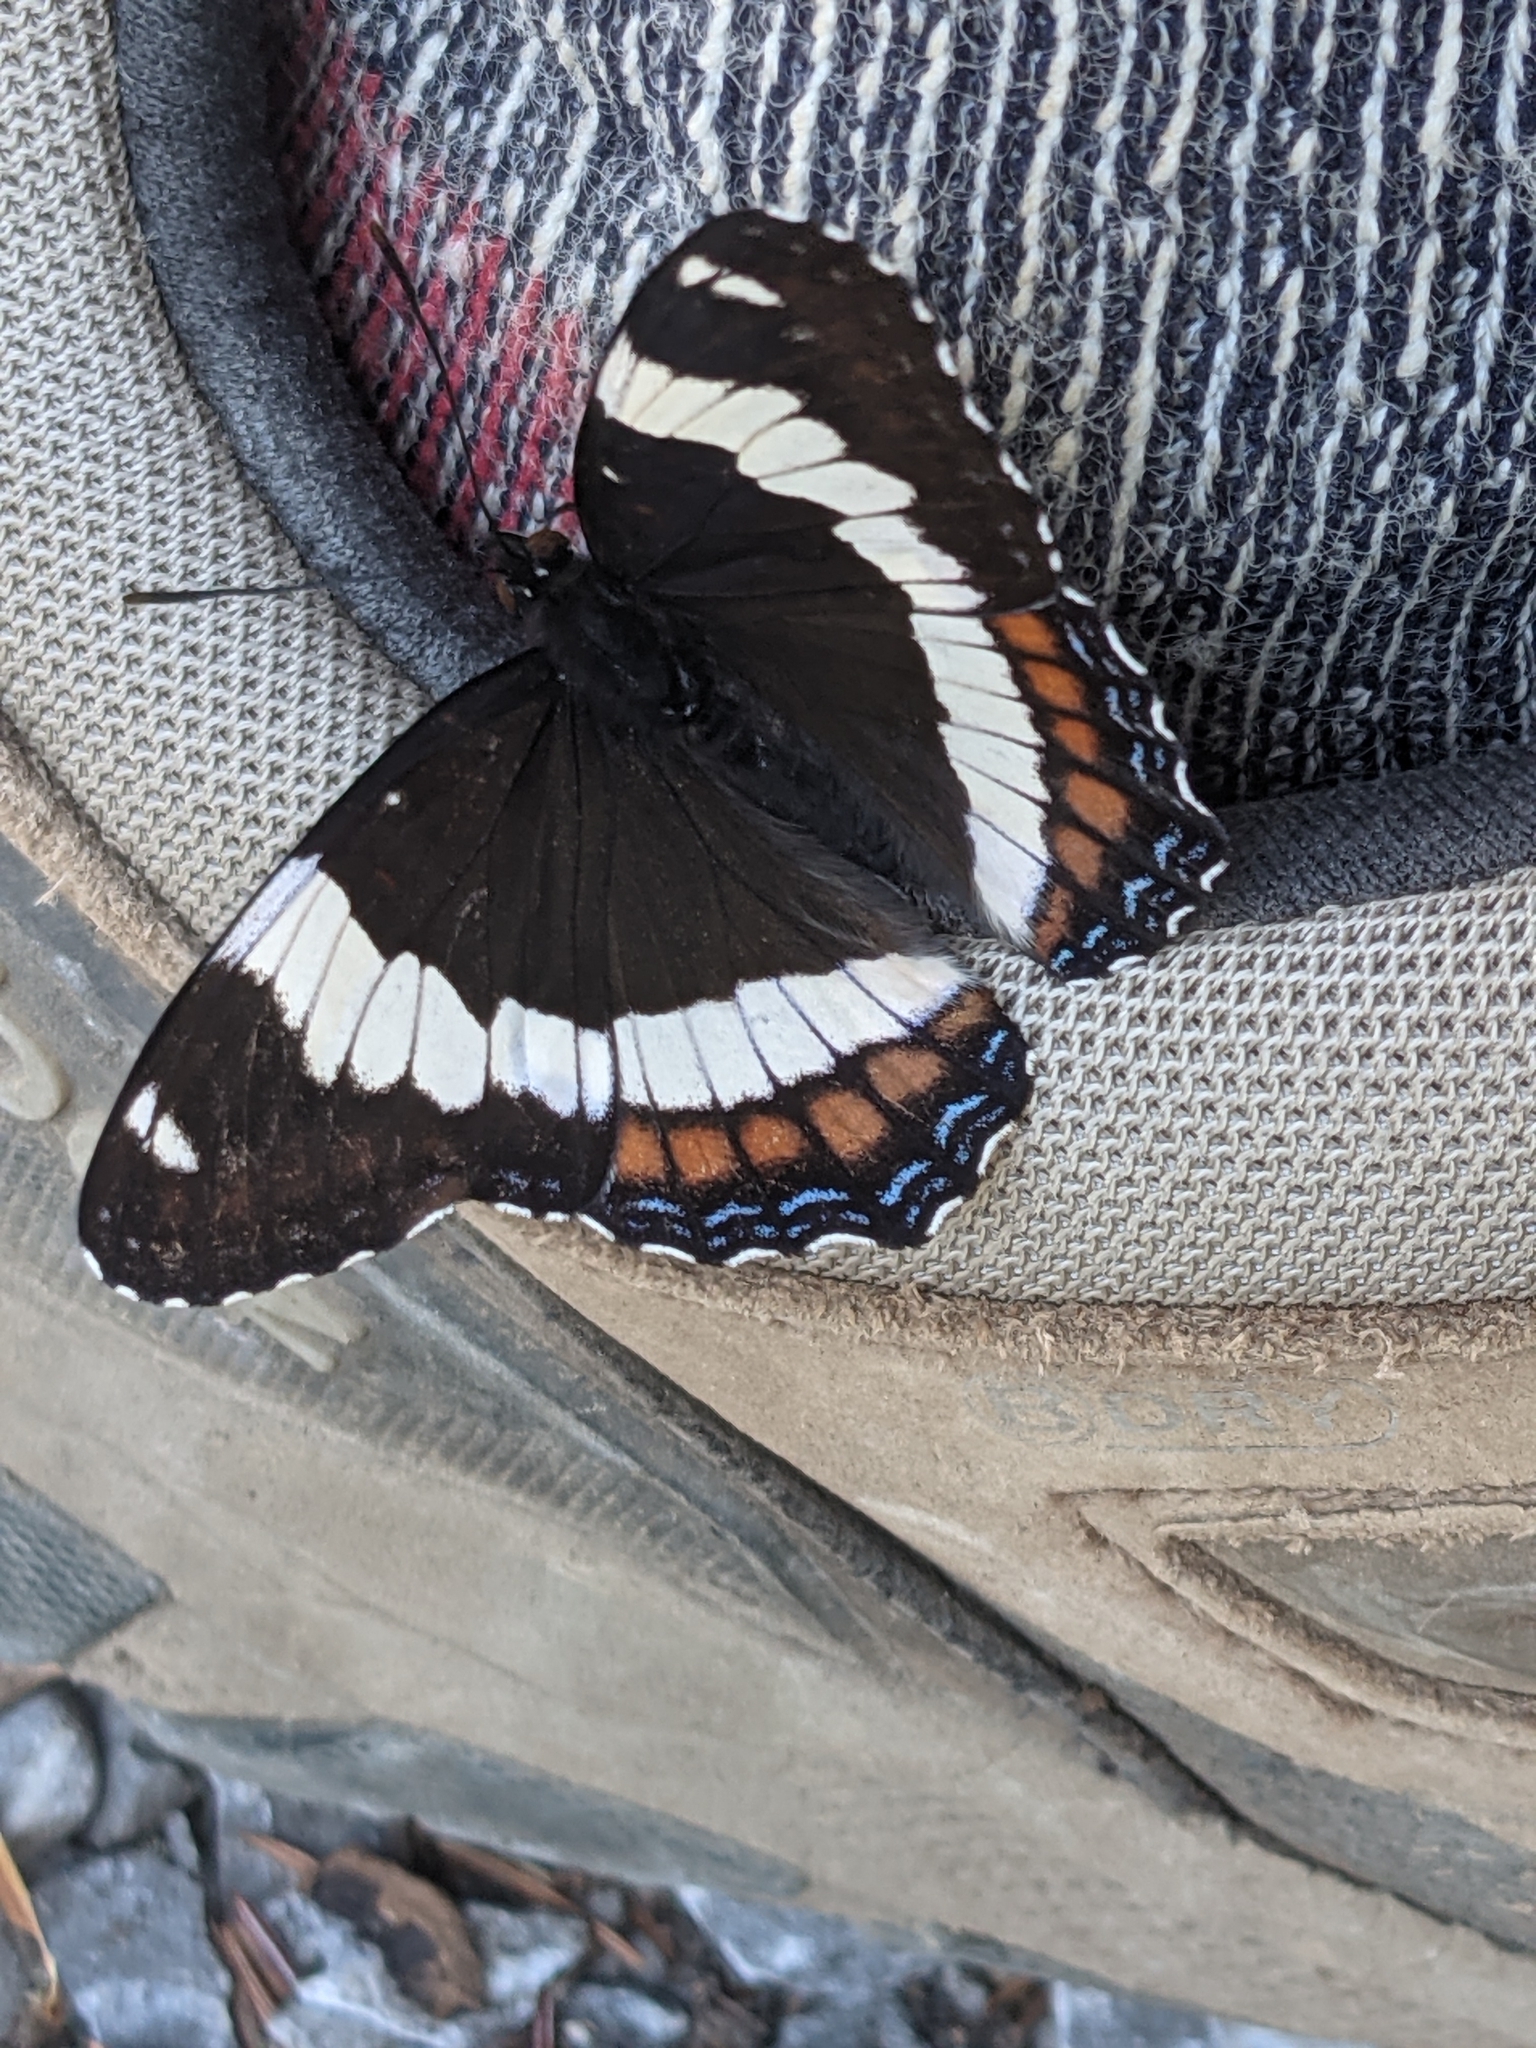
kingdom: Animalia
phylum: Arthropoda
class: Insecta
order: Lepidoptera
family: Nymphalidae
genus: Limenitis
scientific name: Limenitis arthemis
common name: Red-spotted admiral
